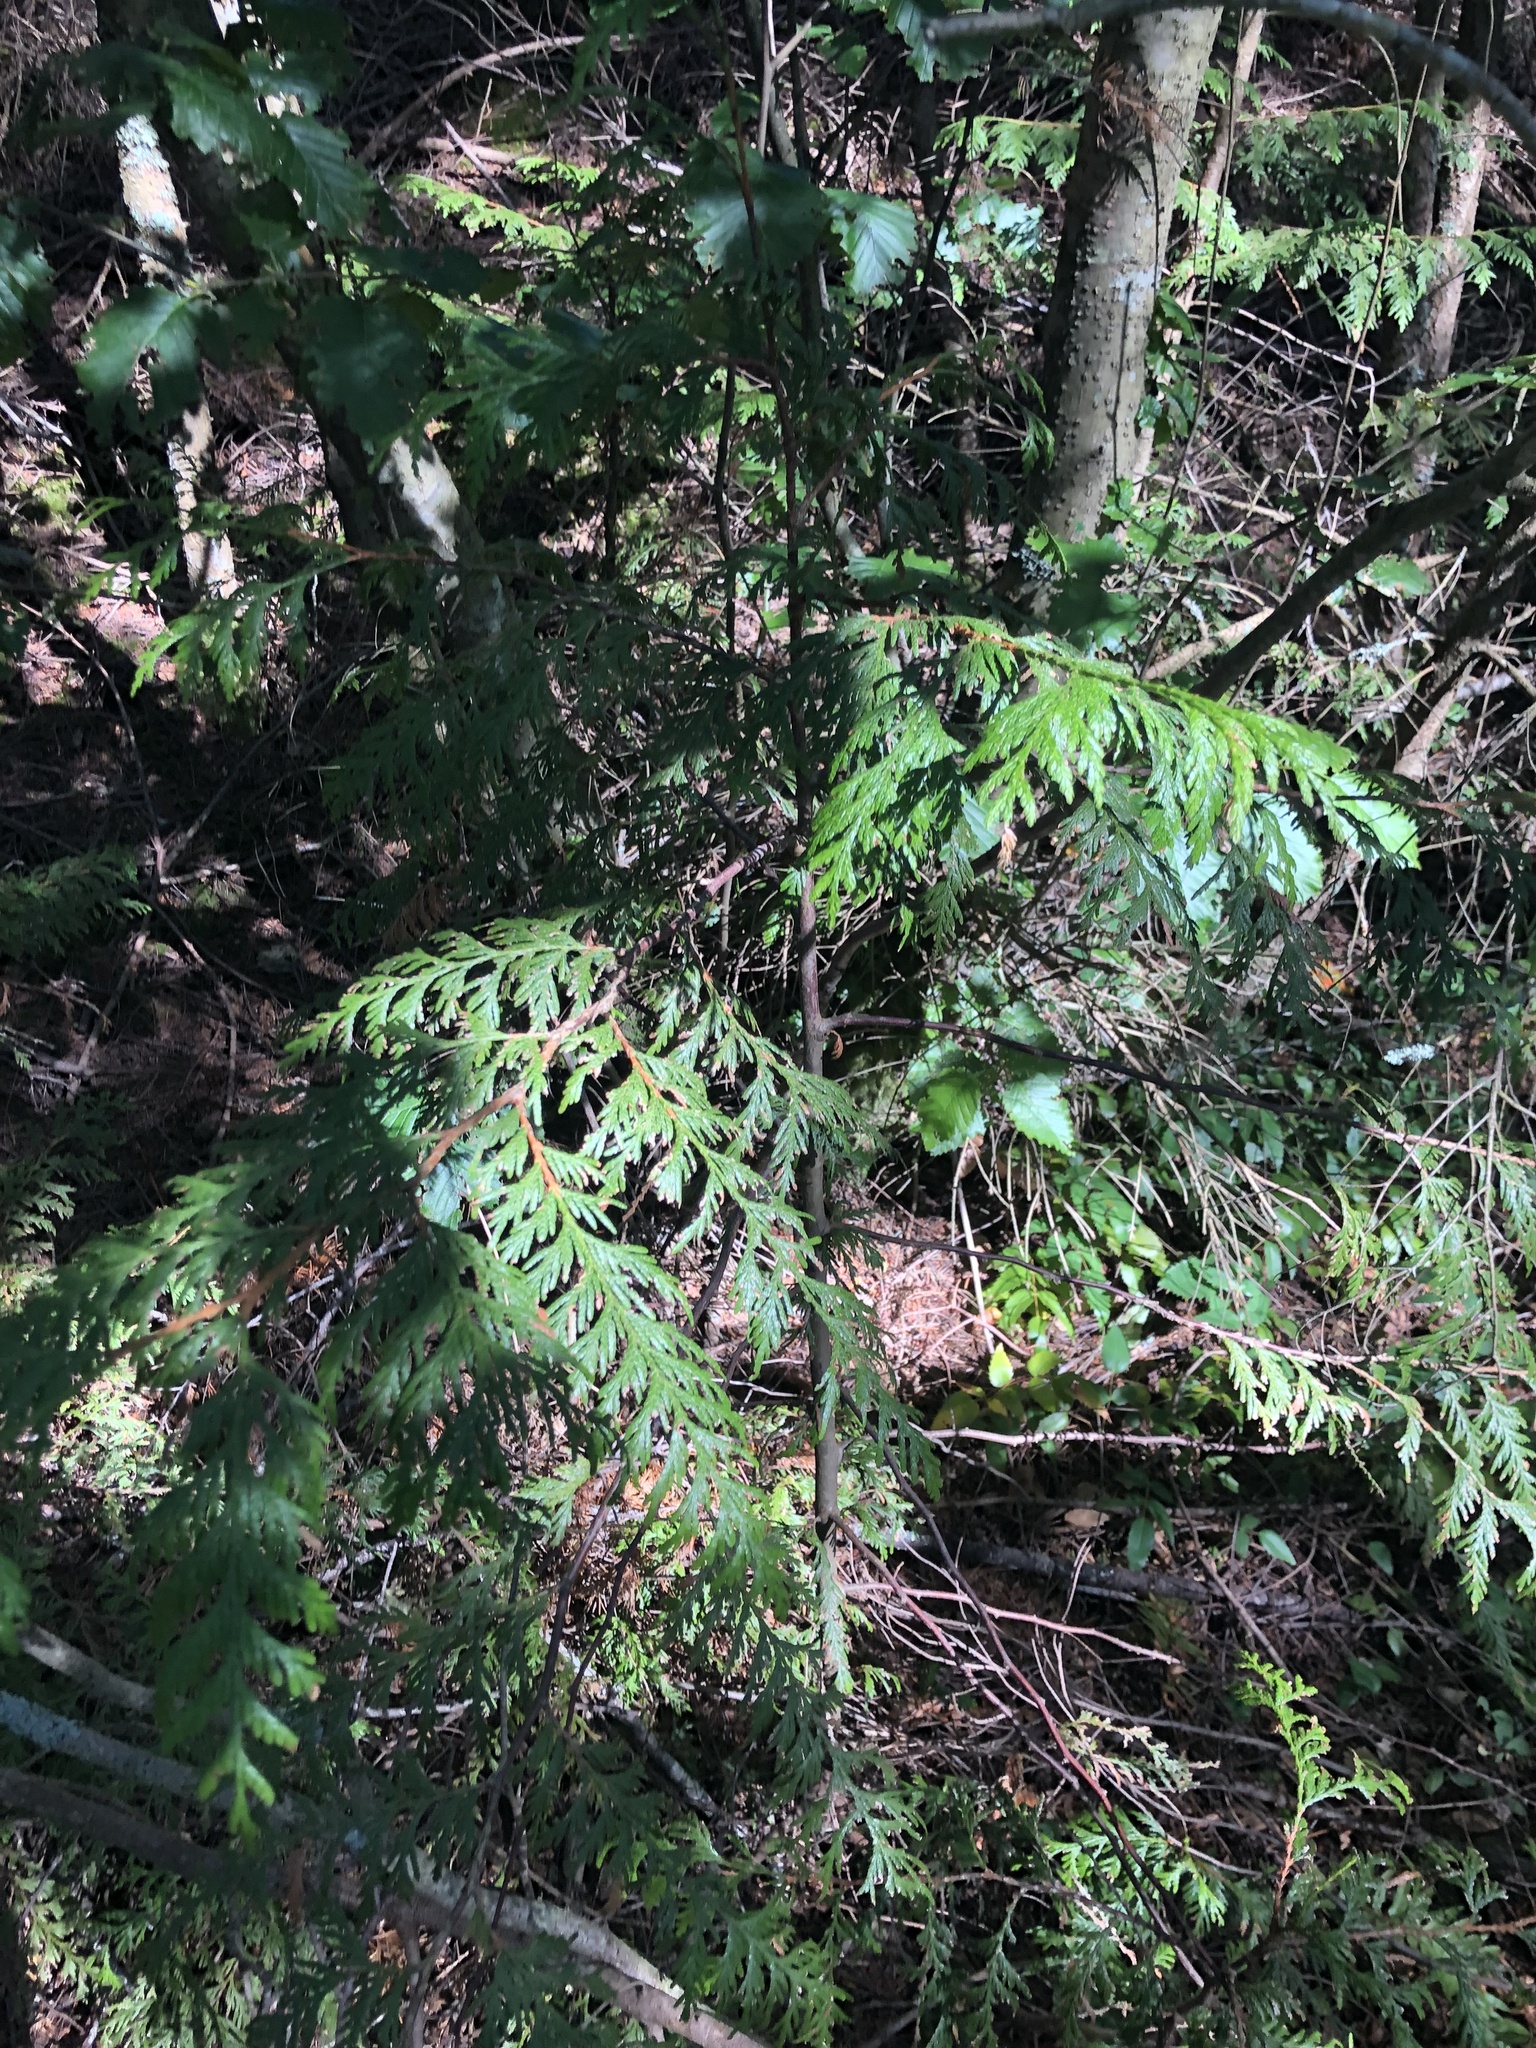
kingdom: Plantae
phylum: Tracheophyta
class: Pinopsida
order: Pinales
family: Cupressaceae
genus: Thuja
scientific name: Thuja plicata
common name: Western red-cedar
